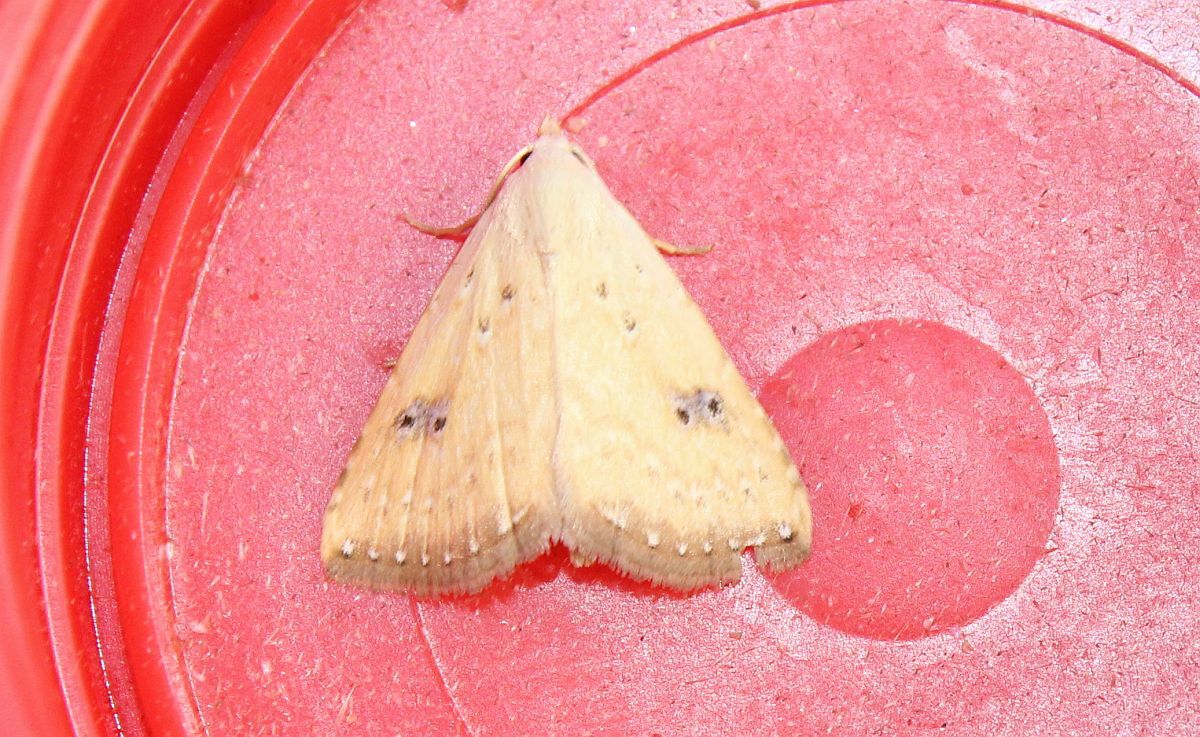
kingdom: Animalia
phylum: Arthropoda
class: Insecta
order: Lepidoptera
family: Erebidae
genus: Rivula
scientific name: Rivula sericealis
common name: Straw dot
